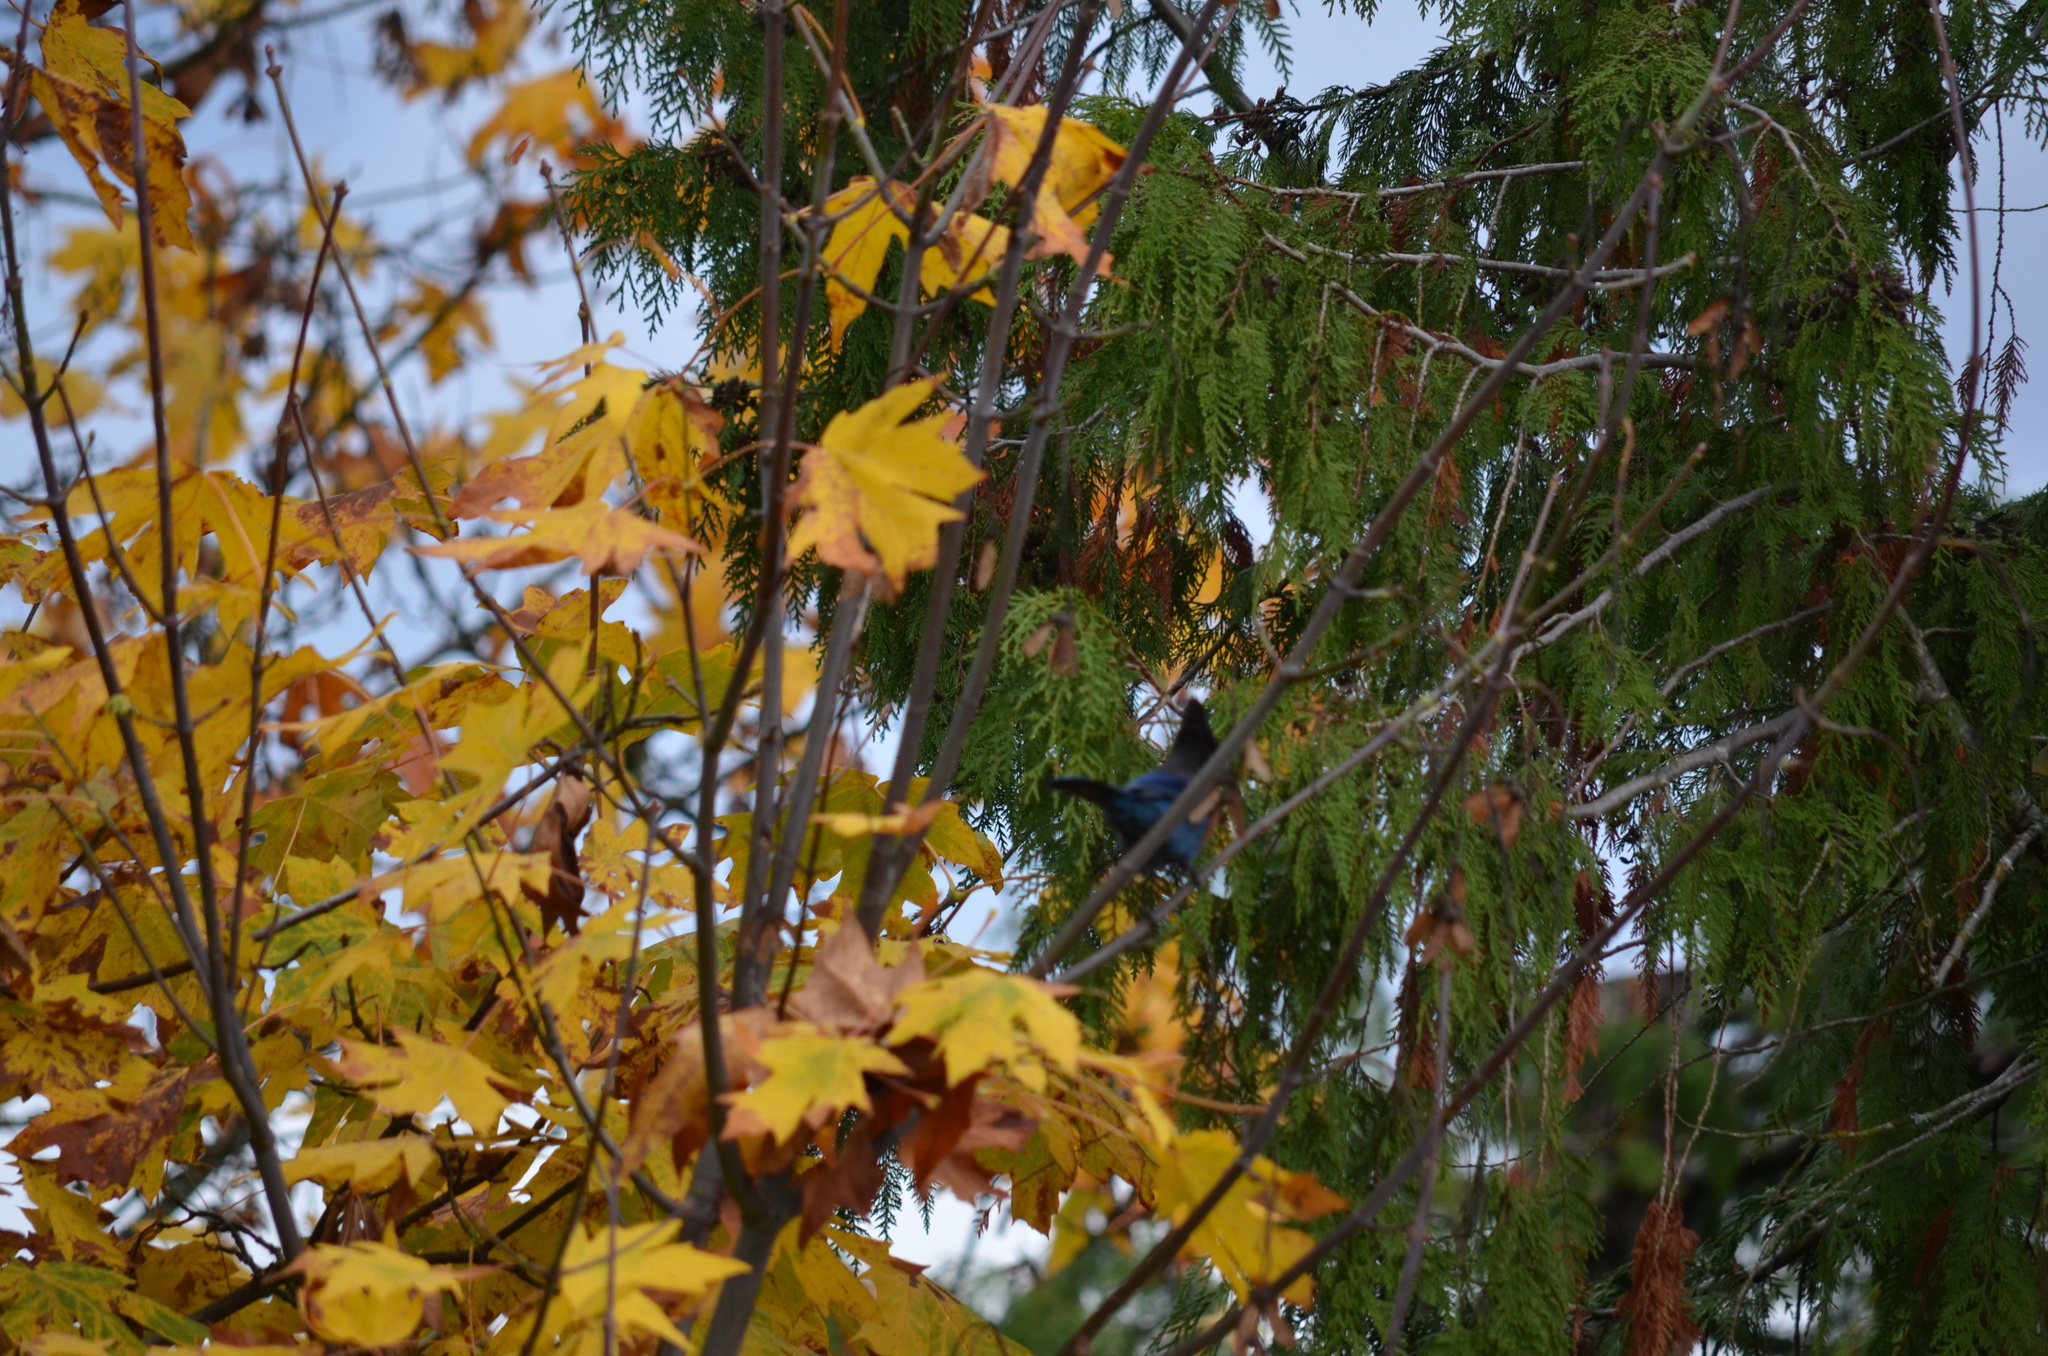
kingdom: Animalia
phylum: Chordata
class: Aves
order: Passeriformes
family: Corvidae
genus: Cyanocitta
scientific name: Cyanocitta stelleri
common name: Steller's jay
